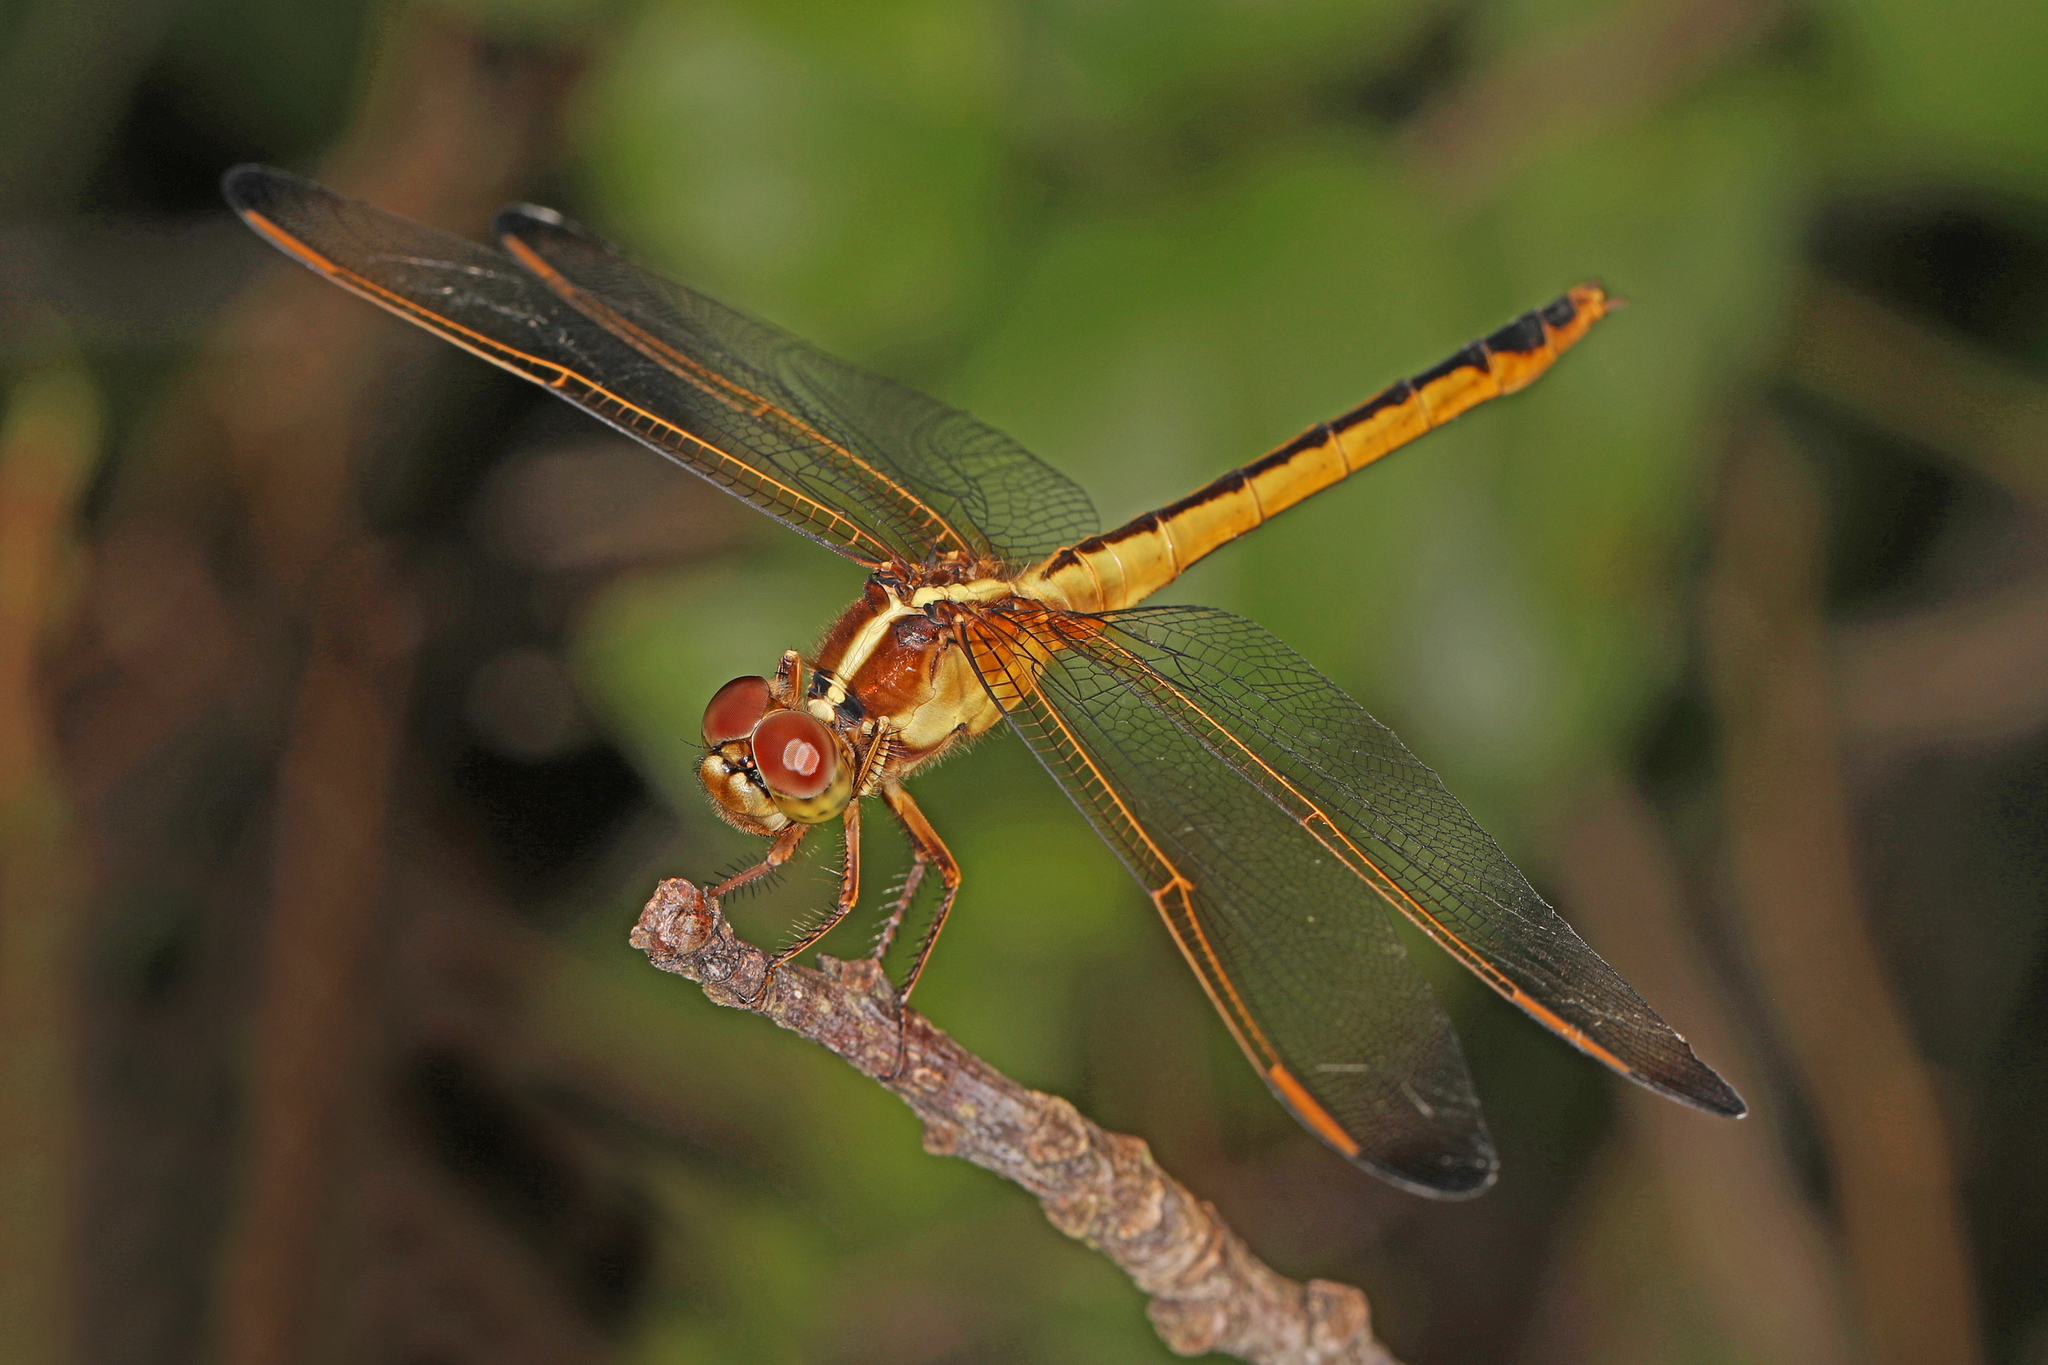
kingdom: Animalia
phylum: Arthropoda
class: Insecta
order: Odonata
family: Libellulidae
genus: Libellula
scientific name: Libellula needhami
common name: Needham's skimmer
